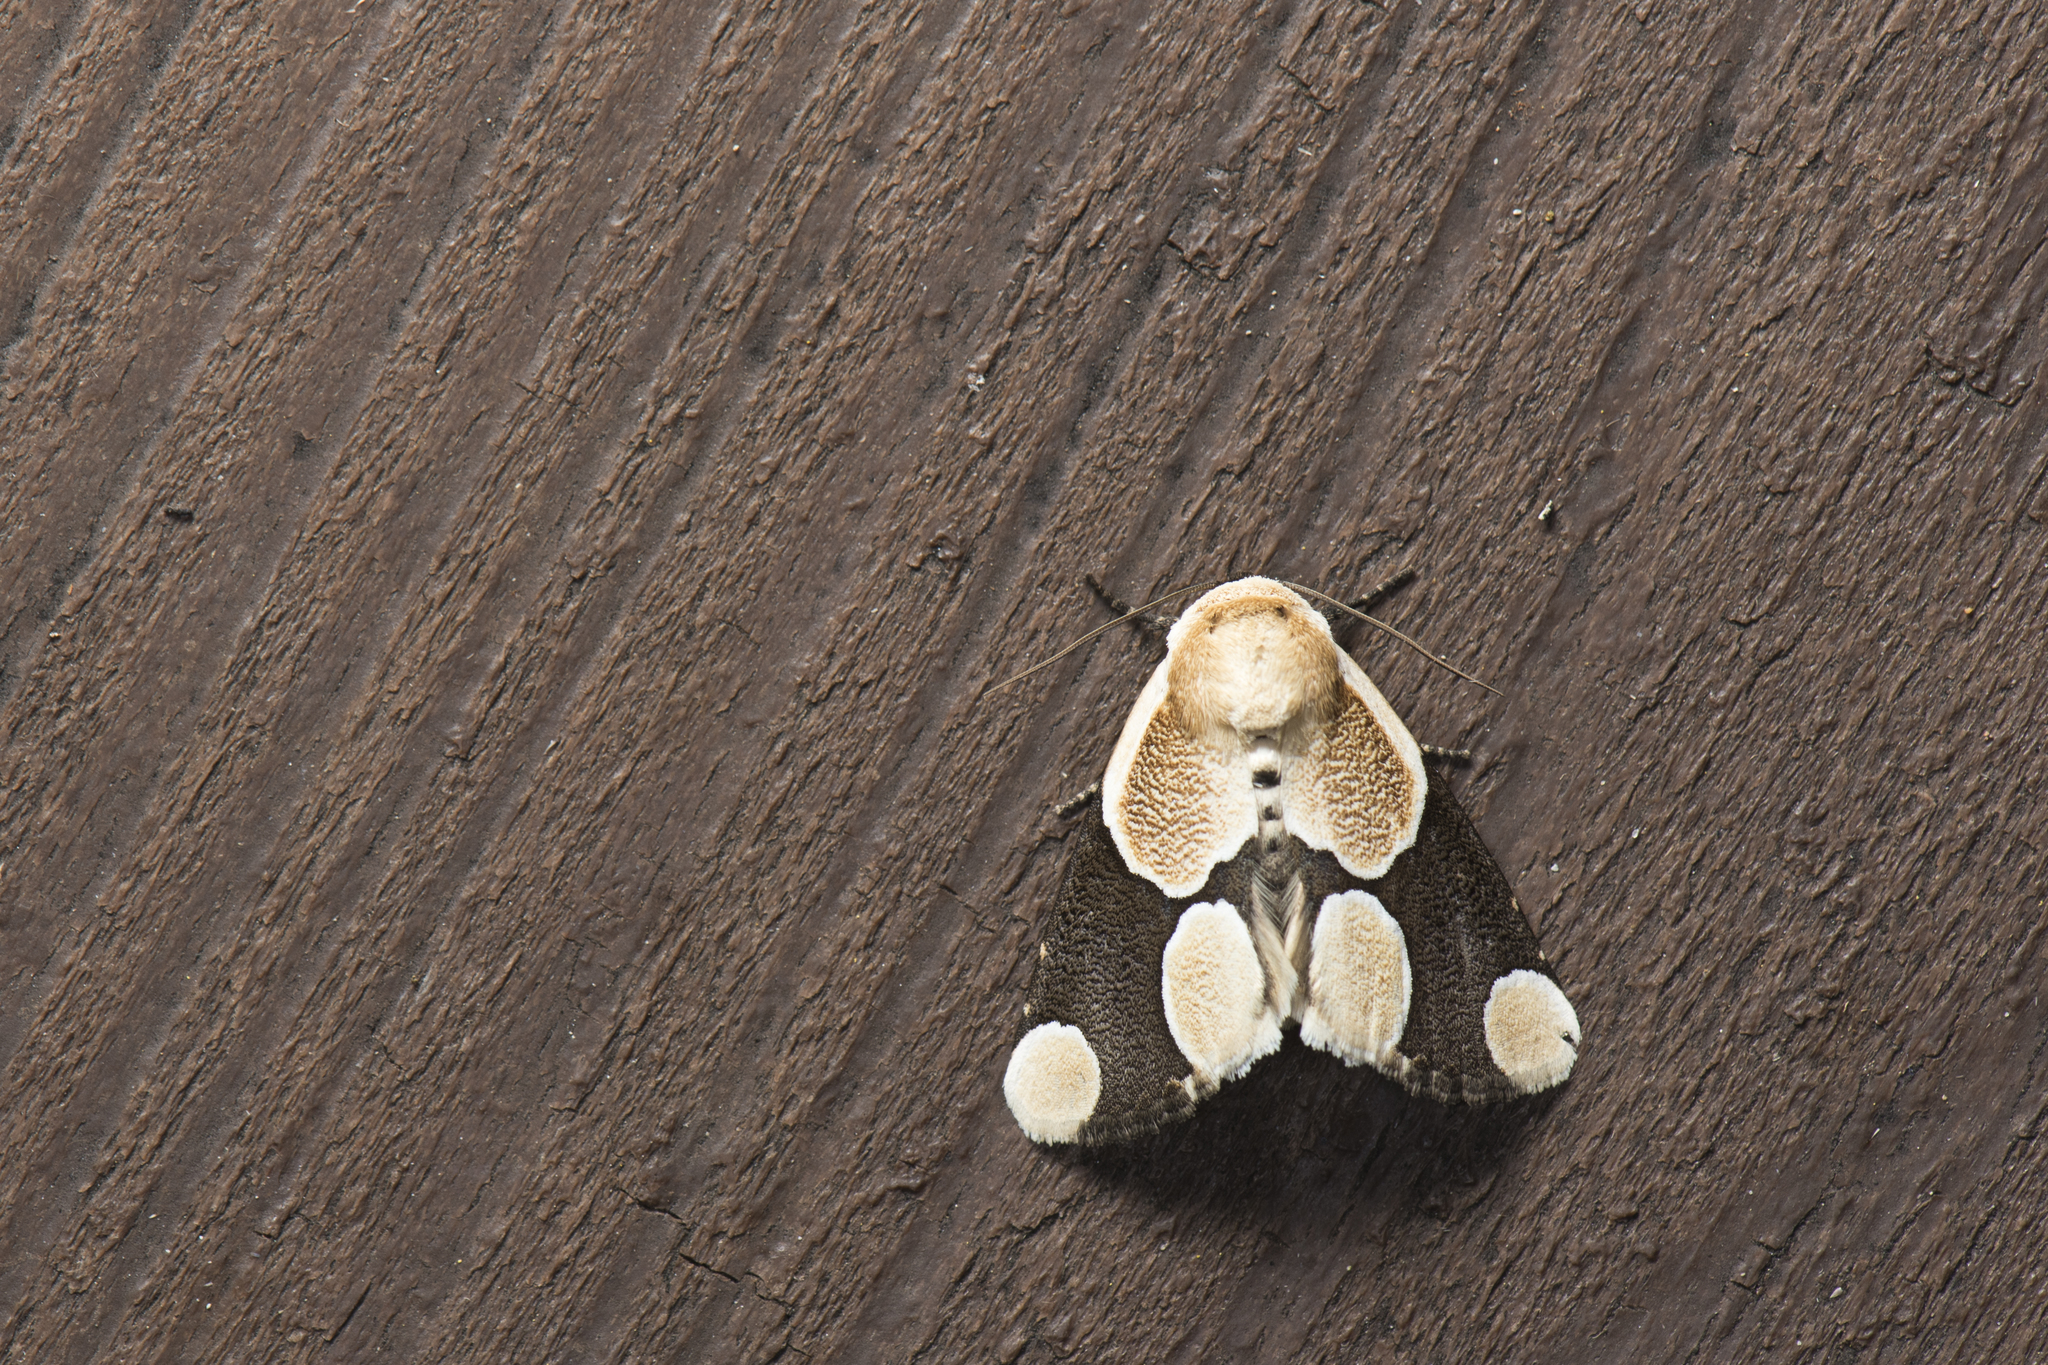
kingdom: Animalia
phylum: Arthropoda
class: Insecta
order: Lepidoptera
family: Erebidae
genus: Cymatophoropsis
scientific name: Cymatophoropsis formosana
